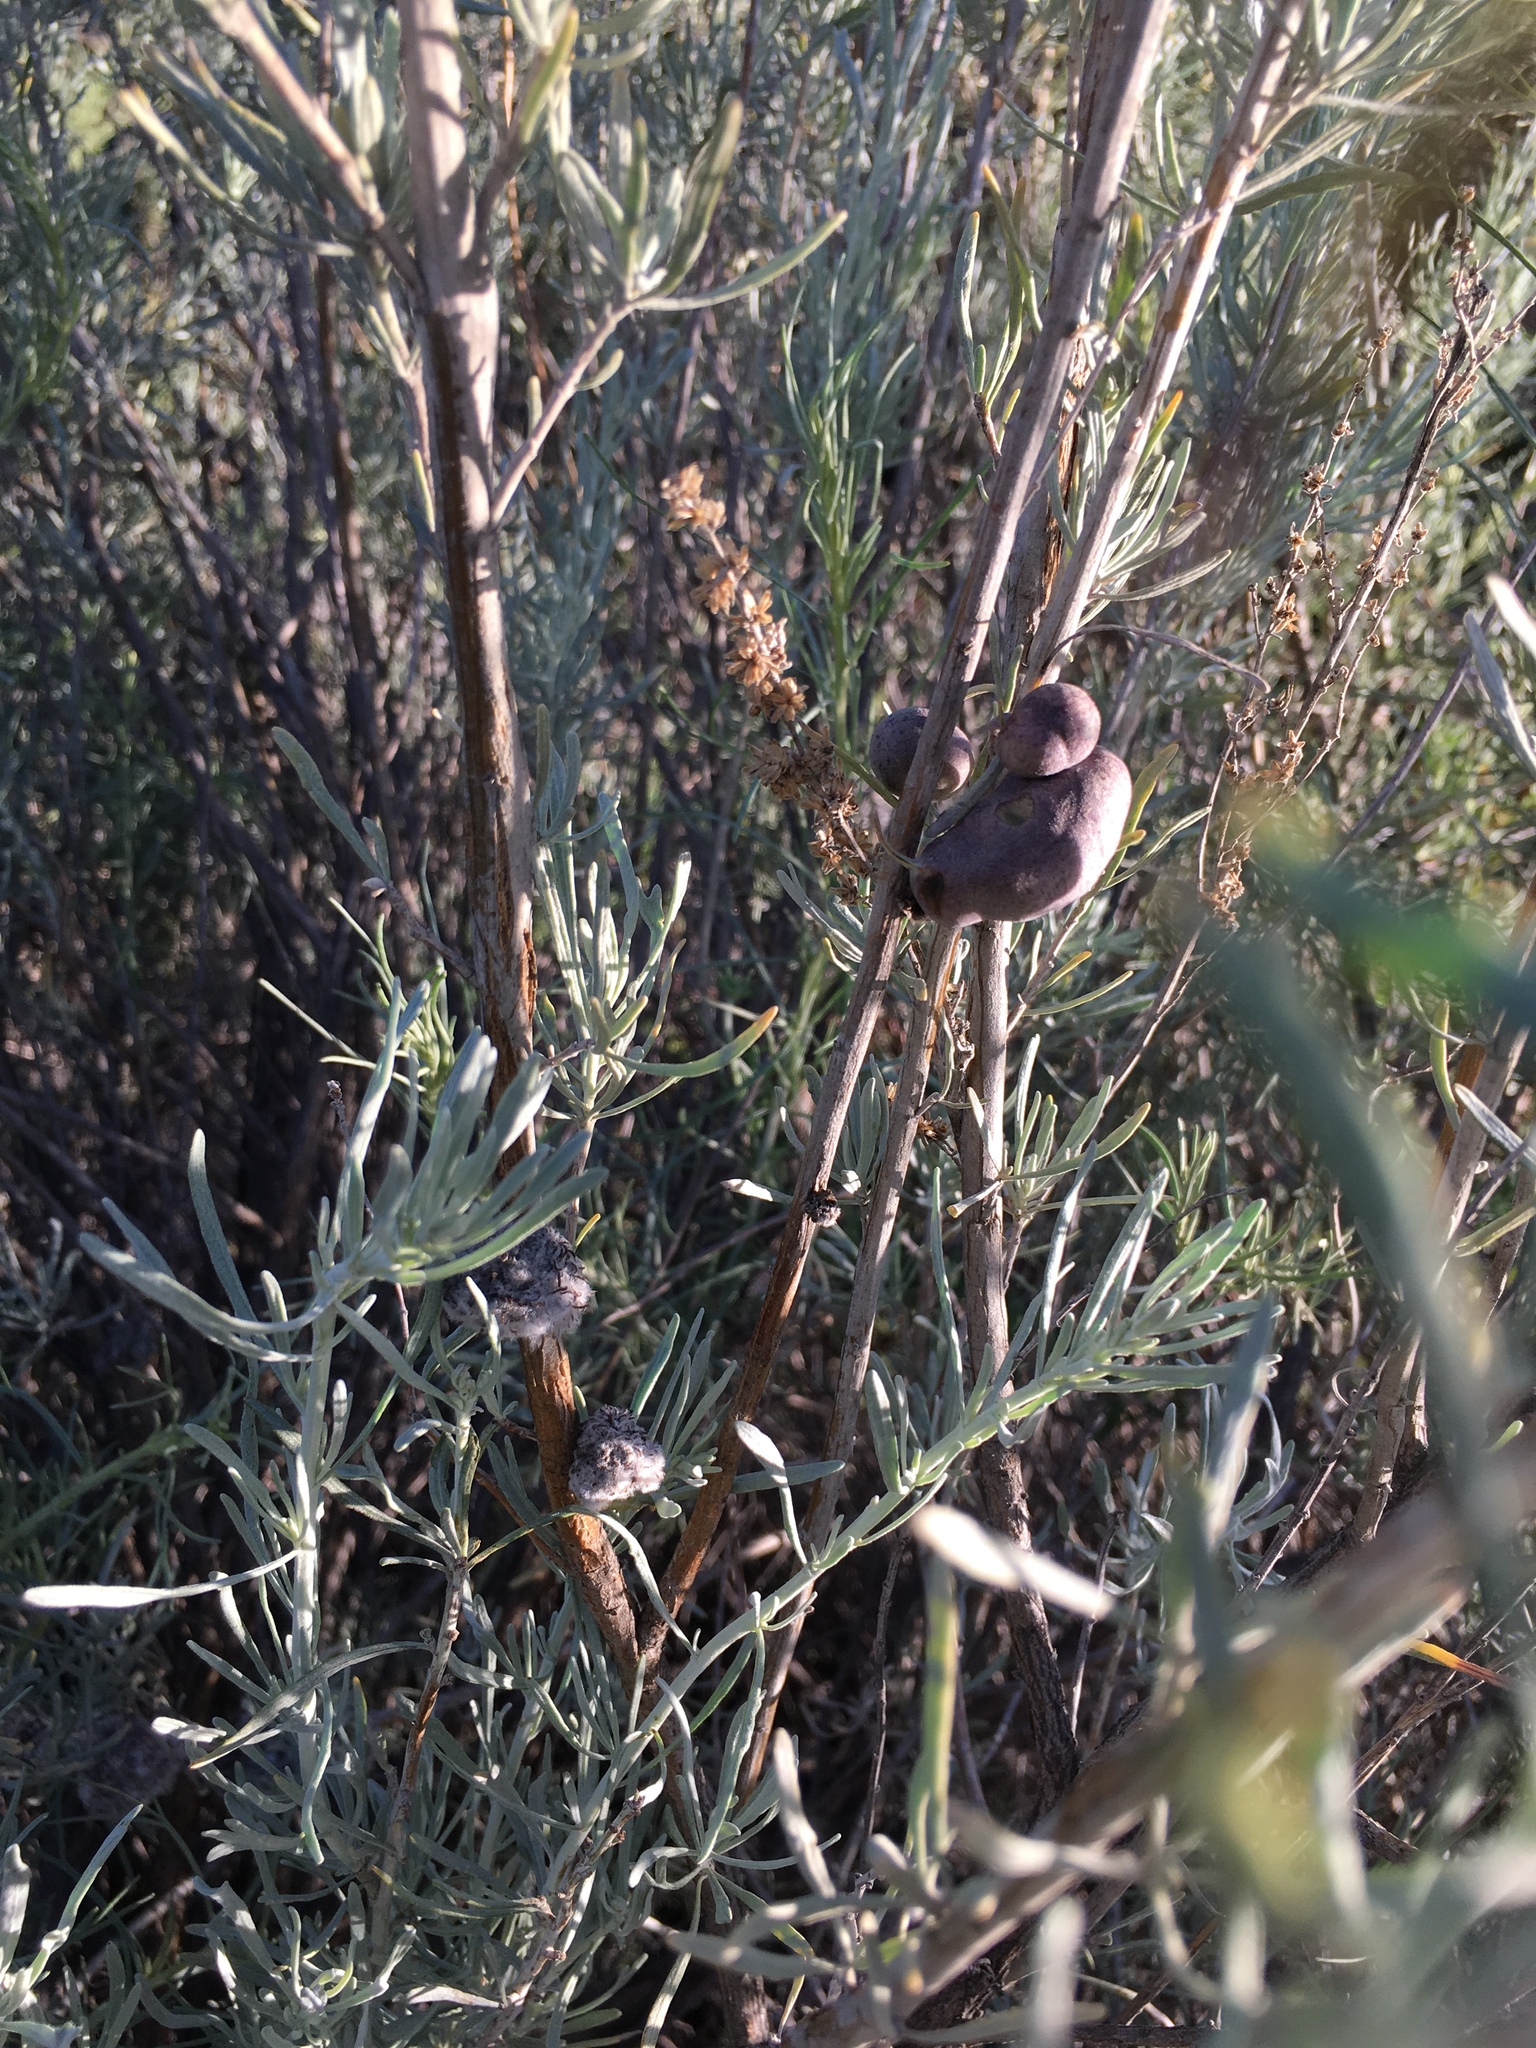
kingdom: Animalia
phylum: Arthropoda
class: Insecta
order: Diptera
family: Cecidomyiidae
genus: Rhopalomyia
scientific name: Rhopalomyia calvipomum
